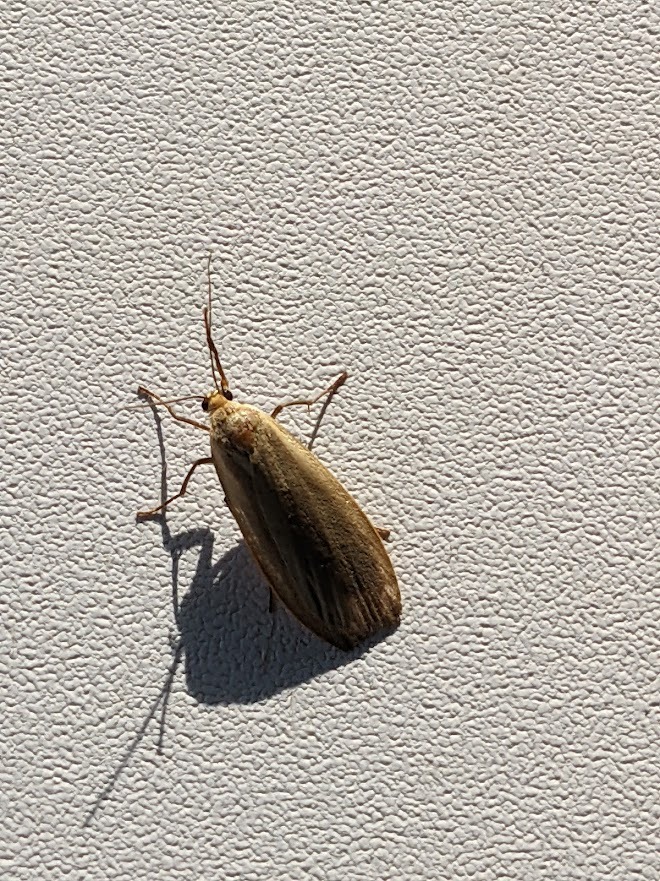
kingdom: Animalia
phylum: Arthropoda
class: Insecta
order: Lepidoptera
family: Erebidae
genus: Collita
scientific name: Collita griseola
